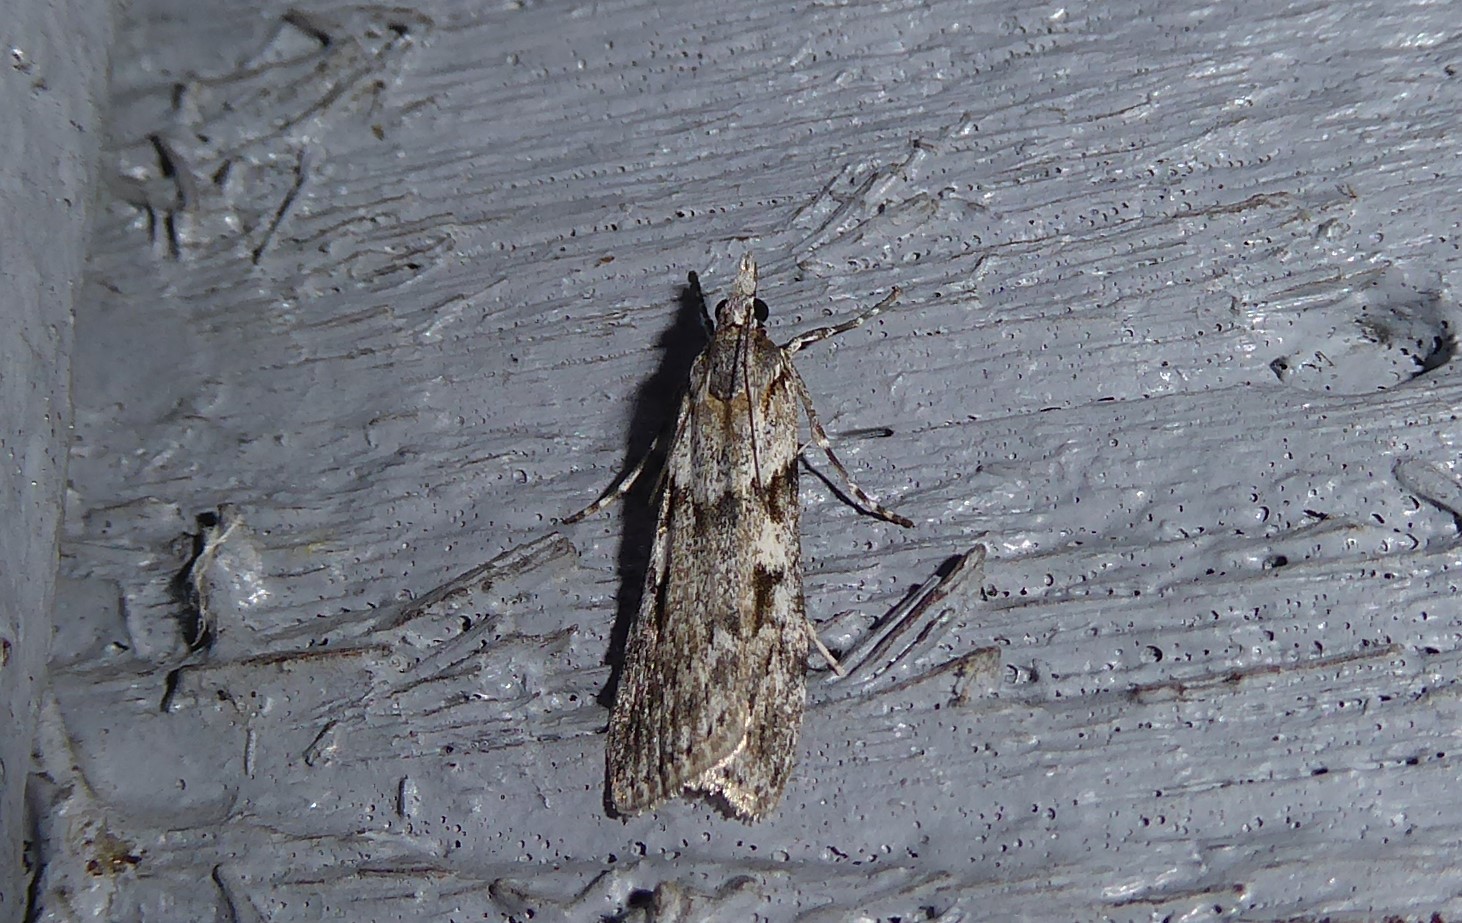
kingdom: Animalia
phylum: Arthropoda
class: Insecta
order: Lepidoptera
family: Crambidae
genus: Scoparia
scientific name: Scoparia halopis
